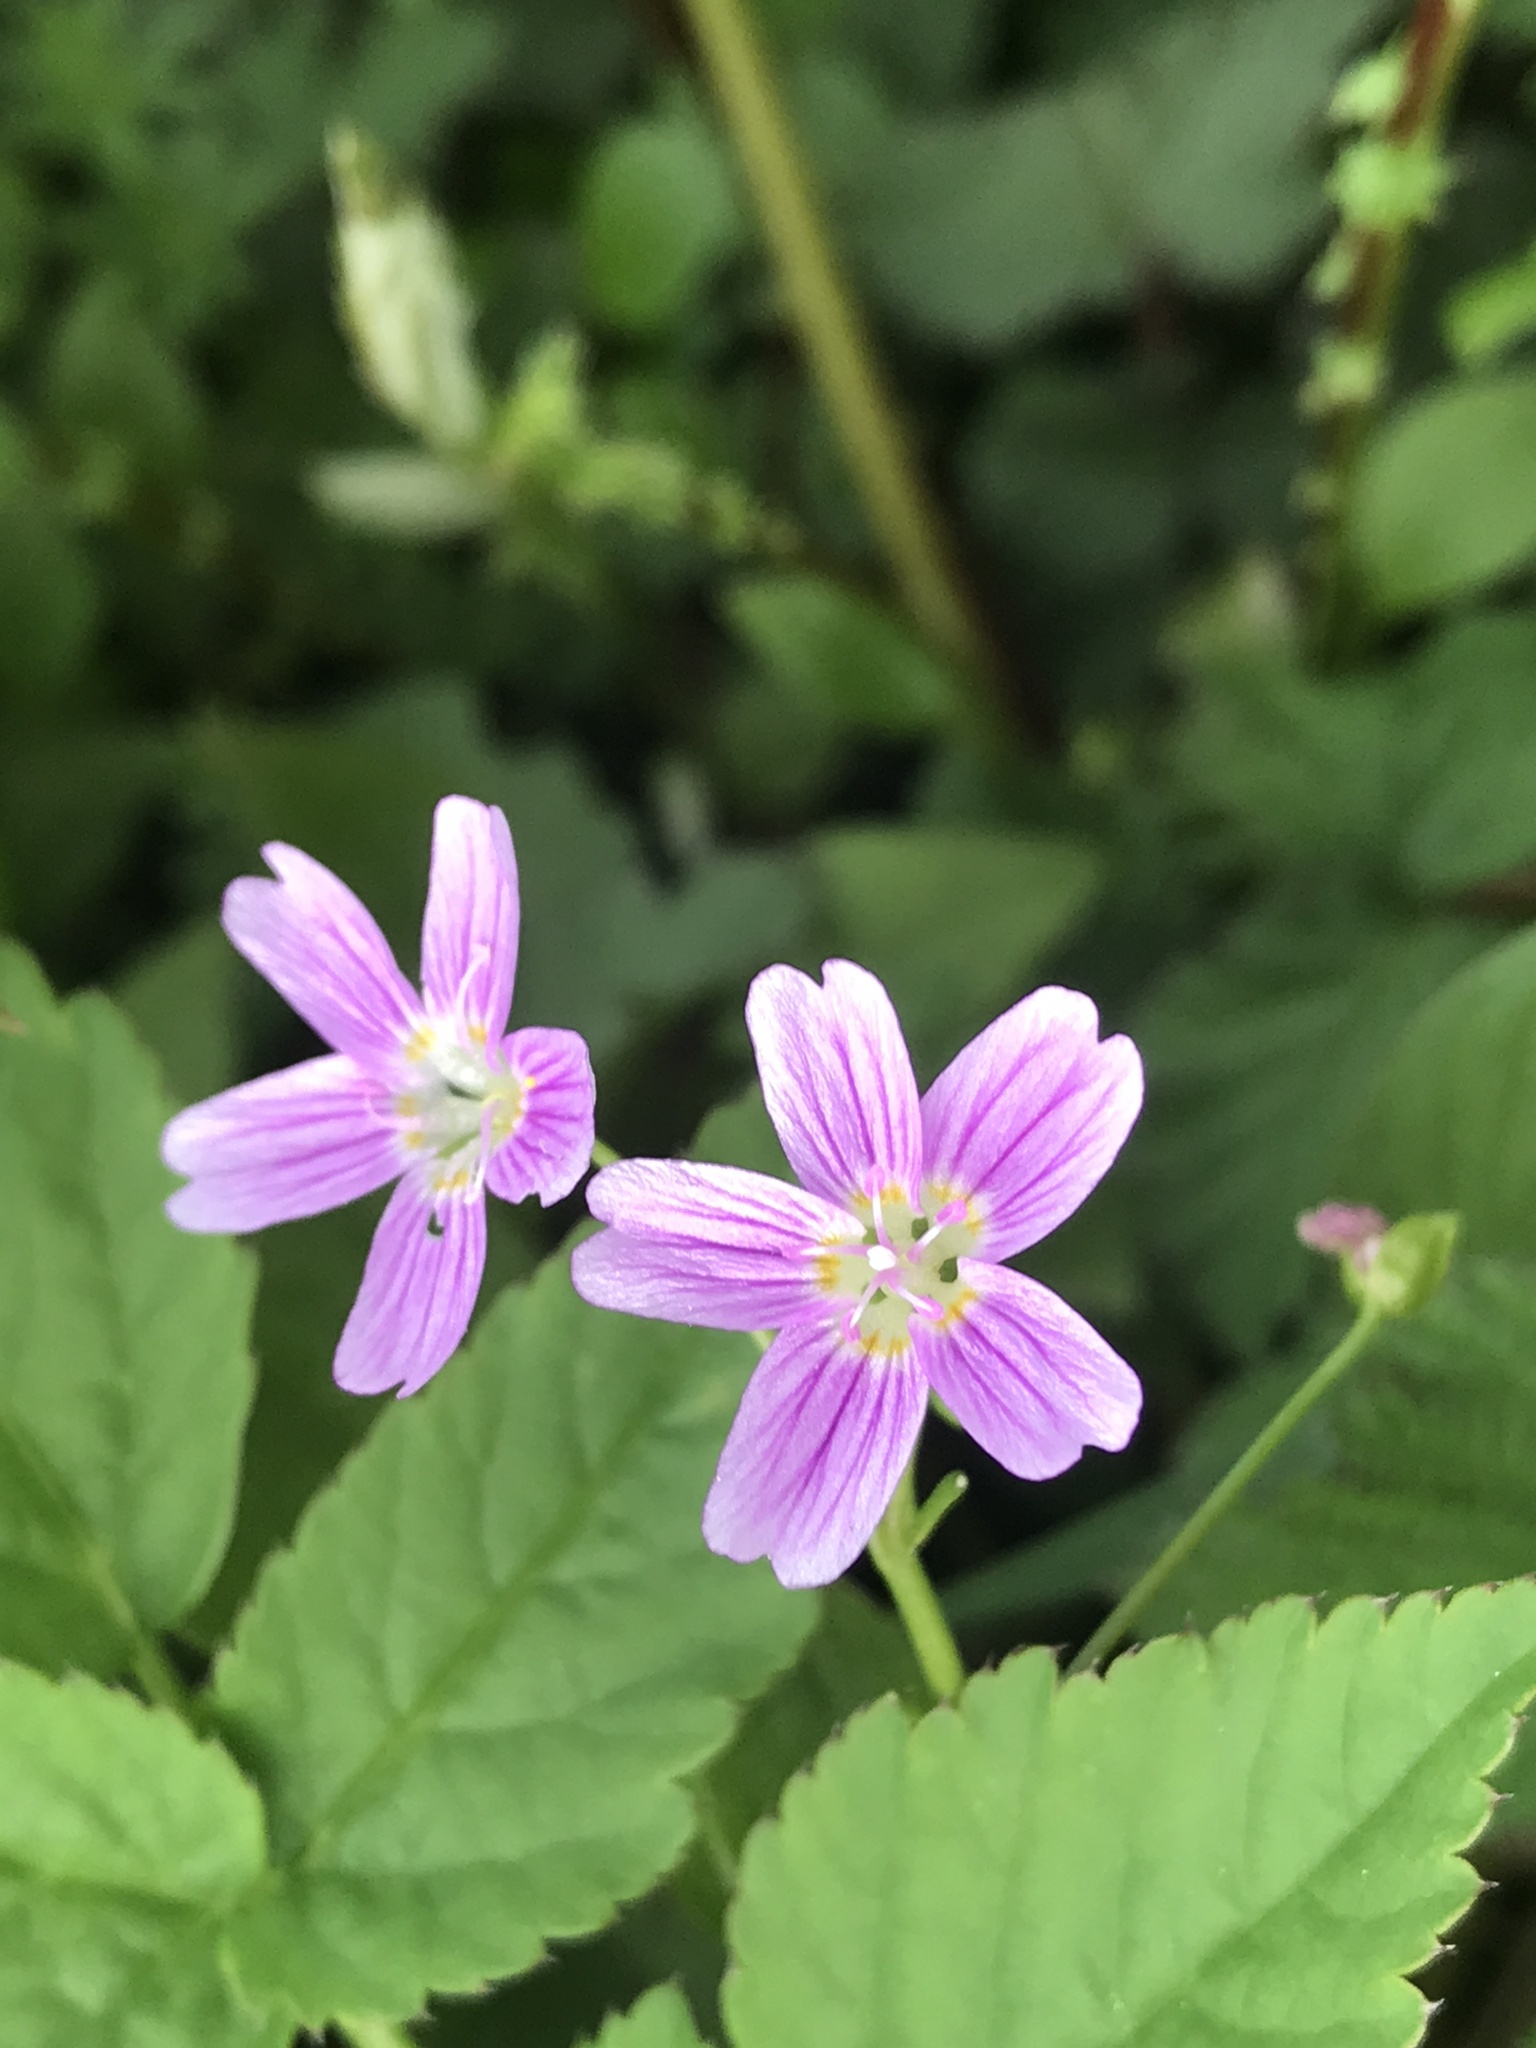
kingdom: Plantae
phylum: Tracheophyta
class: Magnoliopsida
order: Caryophyllales
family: Montiaceae
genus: Claytonia
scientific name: Claytonia sibirica
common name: Pink purslane
